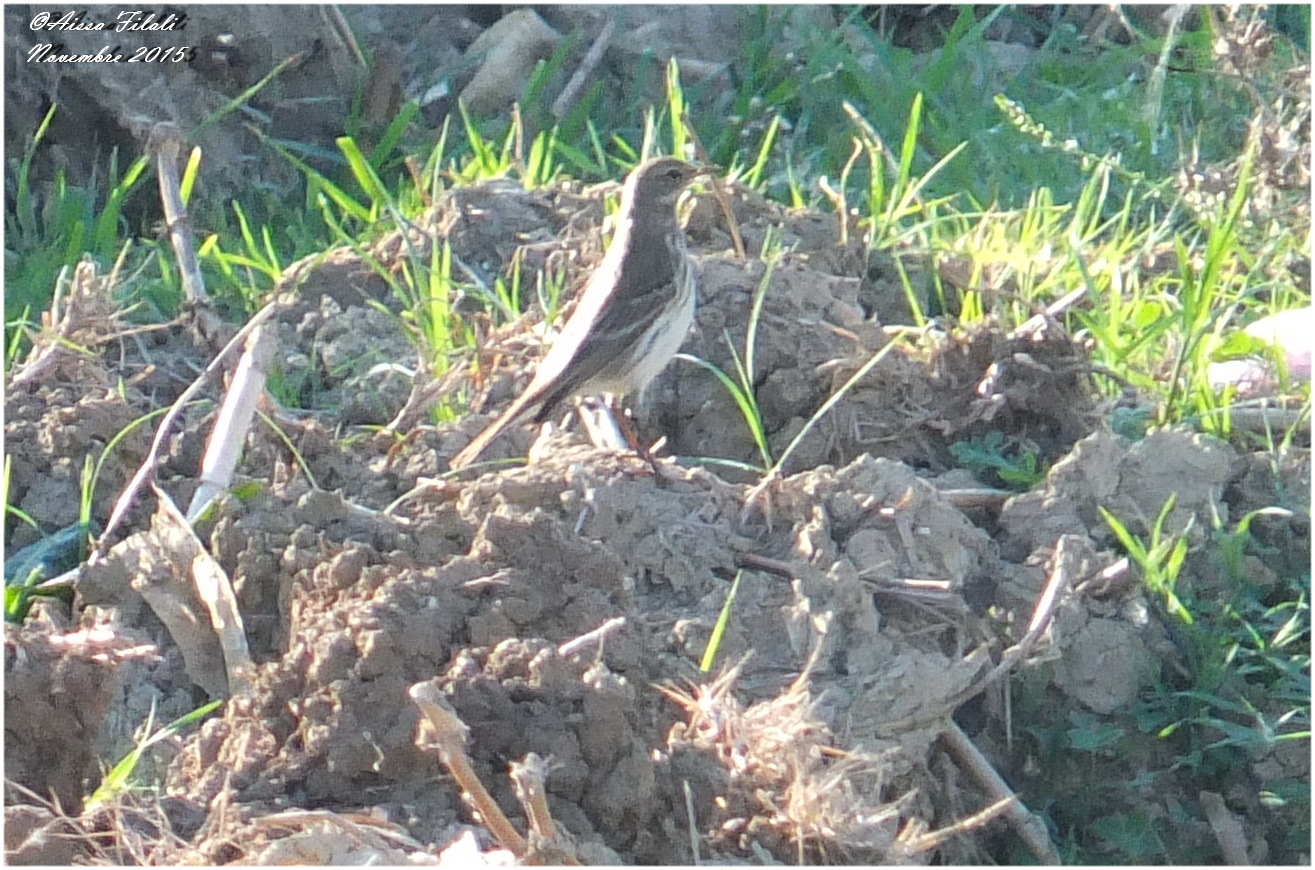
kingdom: Animalia
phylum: Chordata
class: Aves
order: Passeriformes
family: Motacillidae
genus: Anthus
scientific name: Anthus spinoletta
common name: Water pipit
